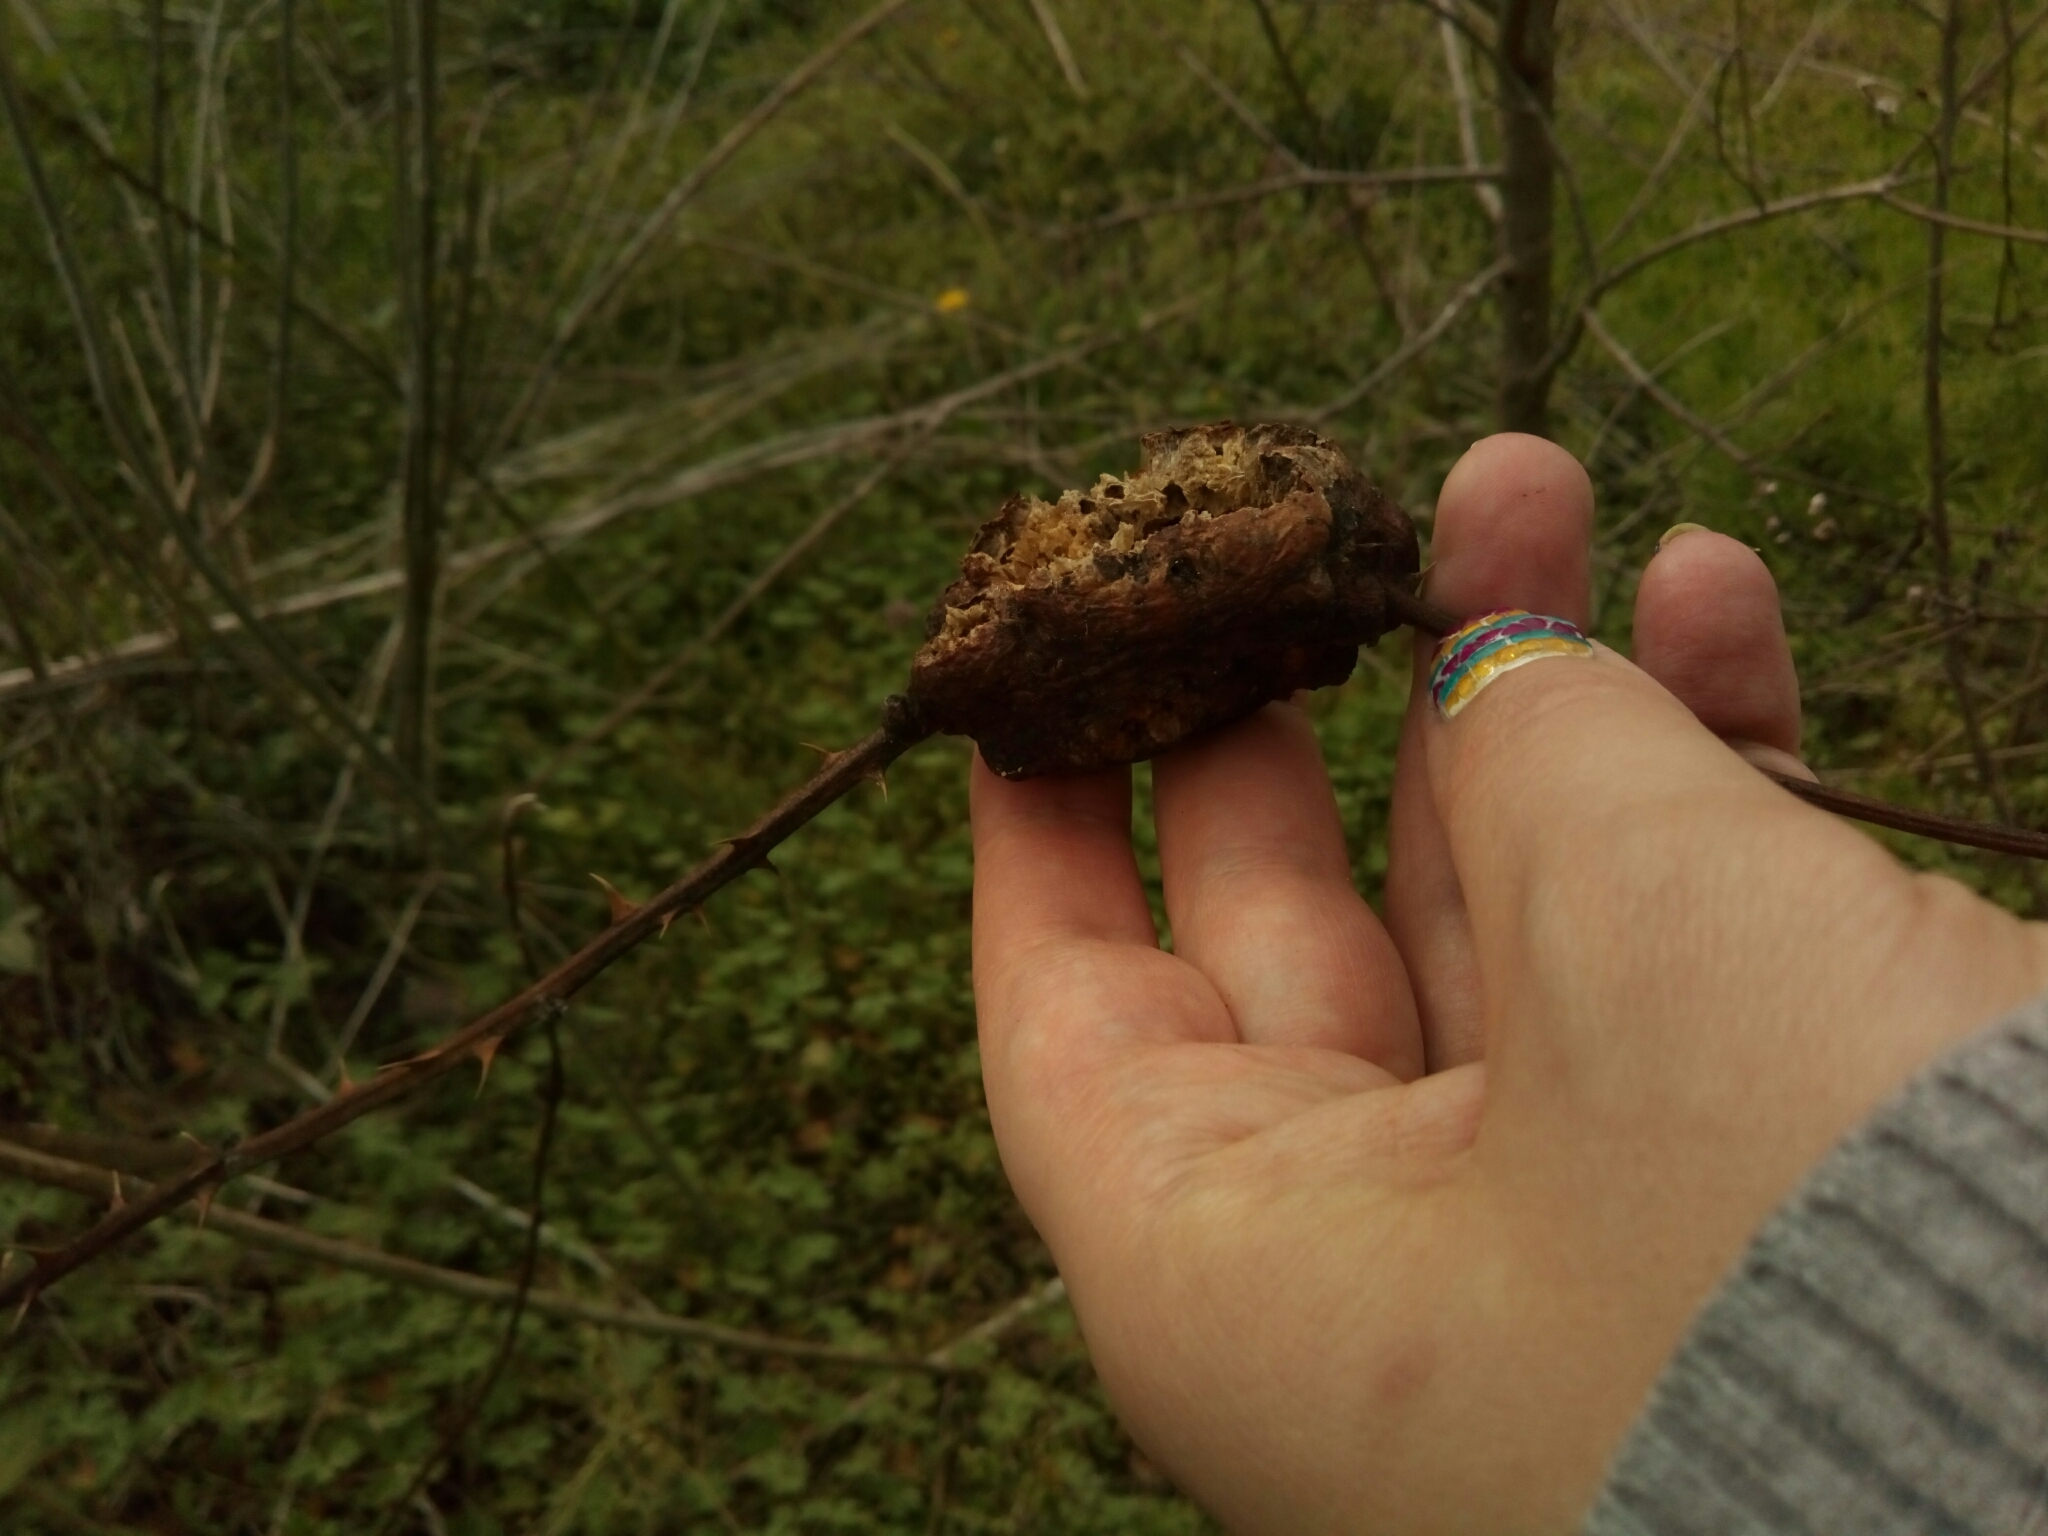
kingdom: Animalia
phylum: Arthropoda
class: Insecta
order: Hymenoptera
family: Cynipidae
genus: Diastrophus
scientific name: Diastrophus
